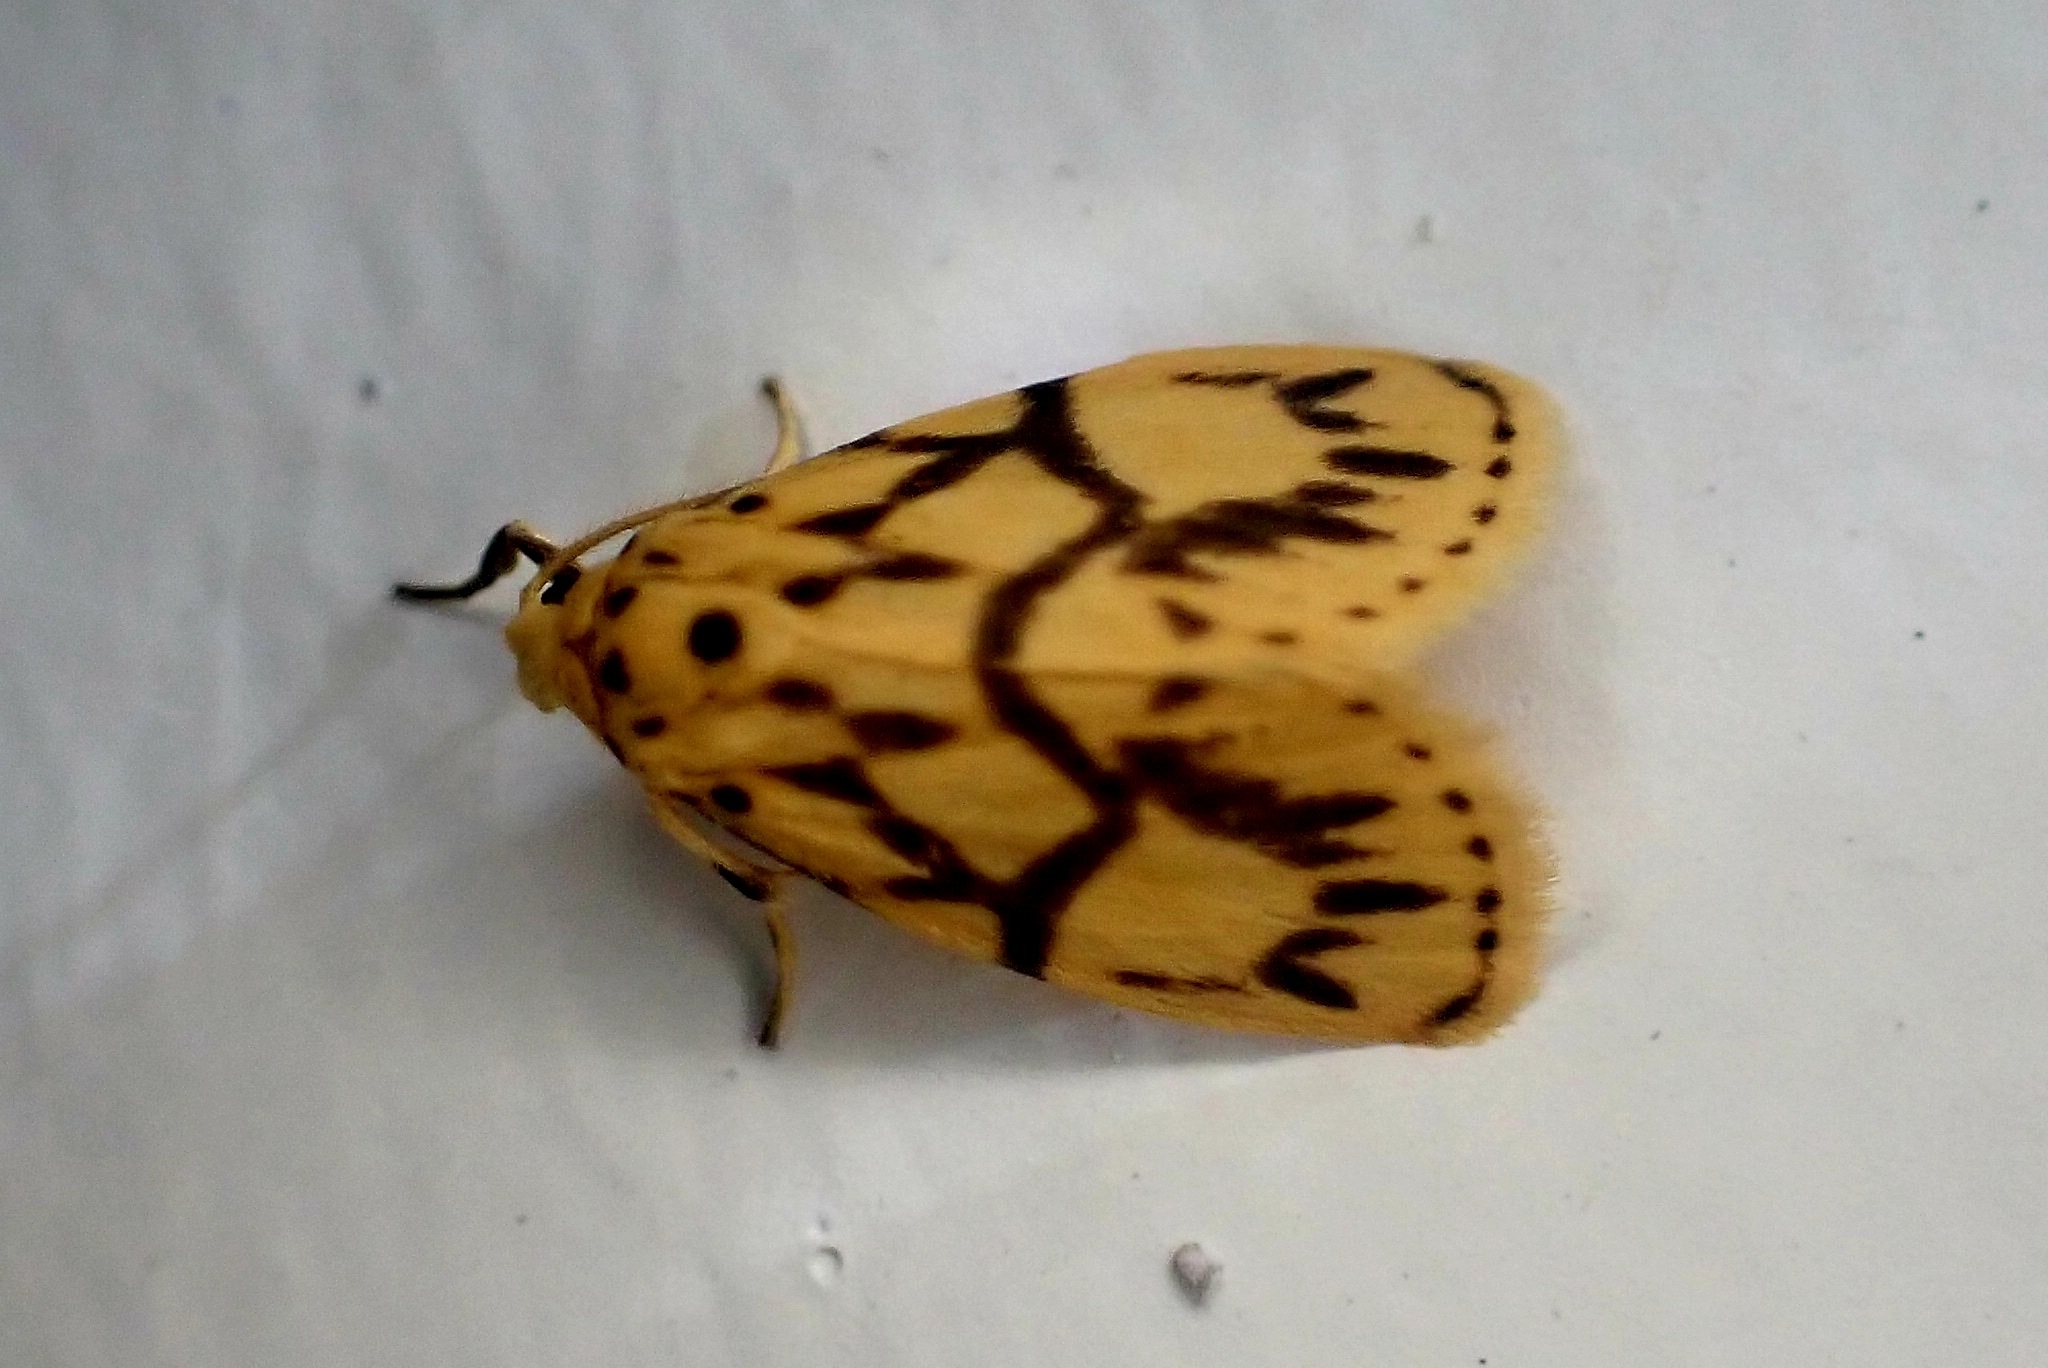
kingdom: Animalia
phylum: Arthropoda
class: Insecta
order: Lepidoptera
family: Erebidae
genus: Miltochrista
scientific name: Miltochrista terminospota
